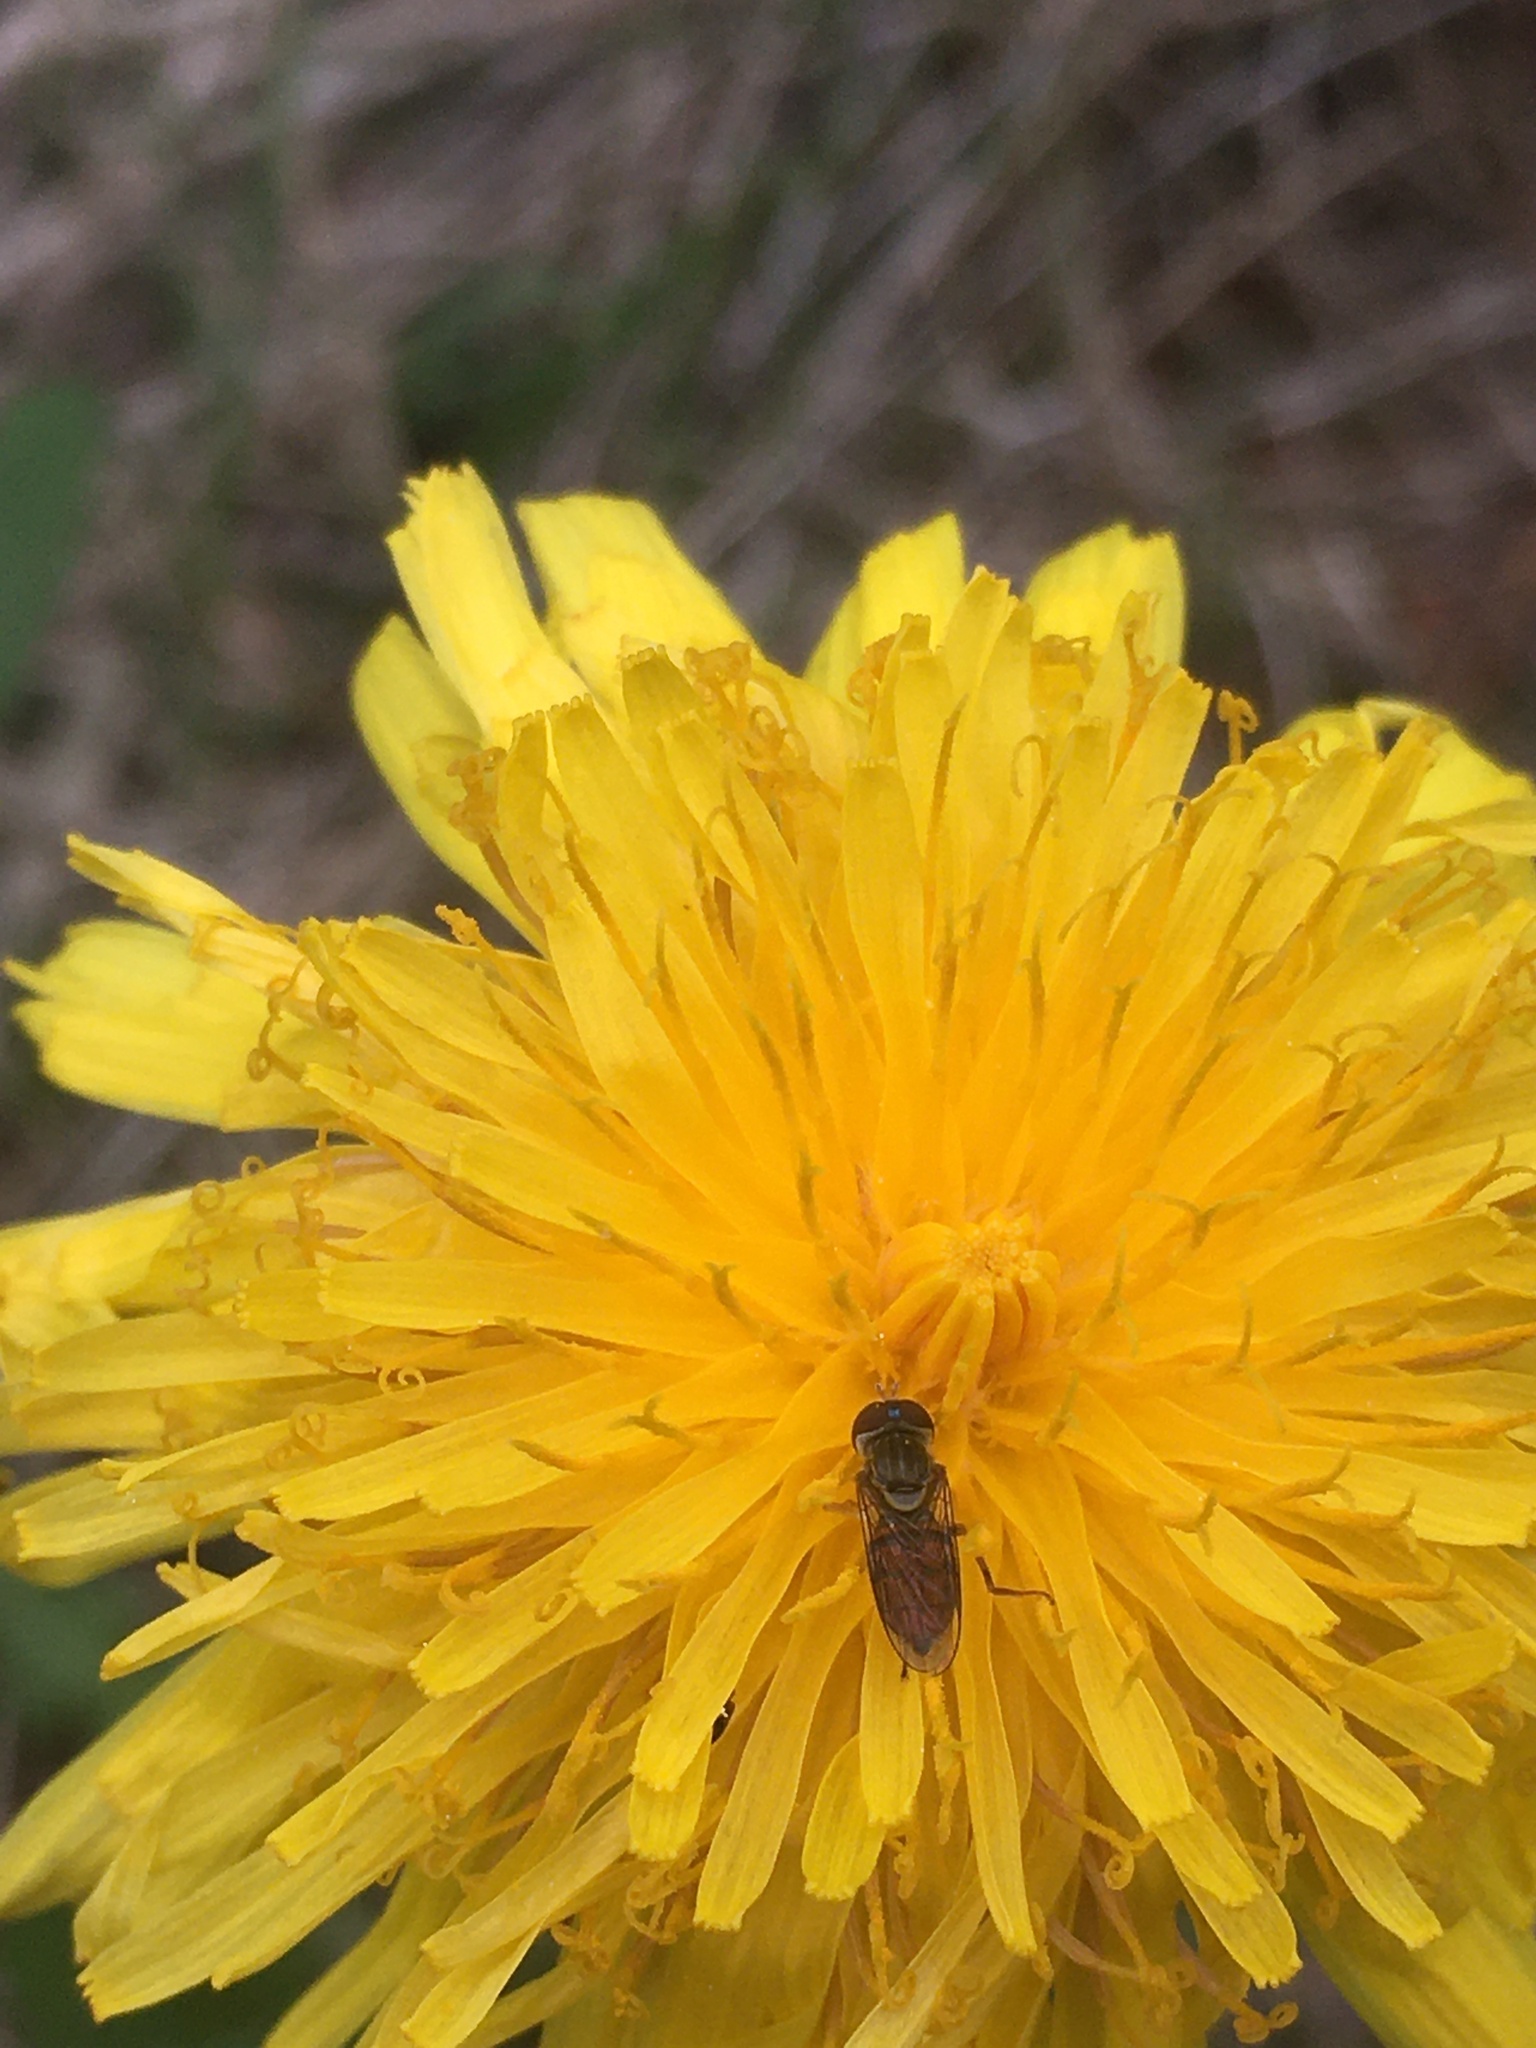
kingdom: Animalia
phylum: Arthropoda
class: Insecta
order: Diptera
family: Syrphidae
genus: Toxomerus
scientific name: Toxomerus marginatus
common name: Syrphid fly
